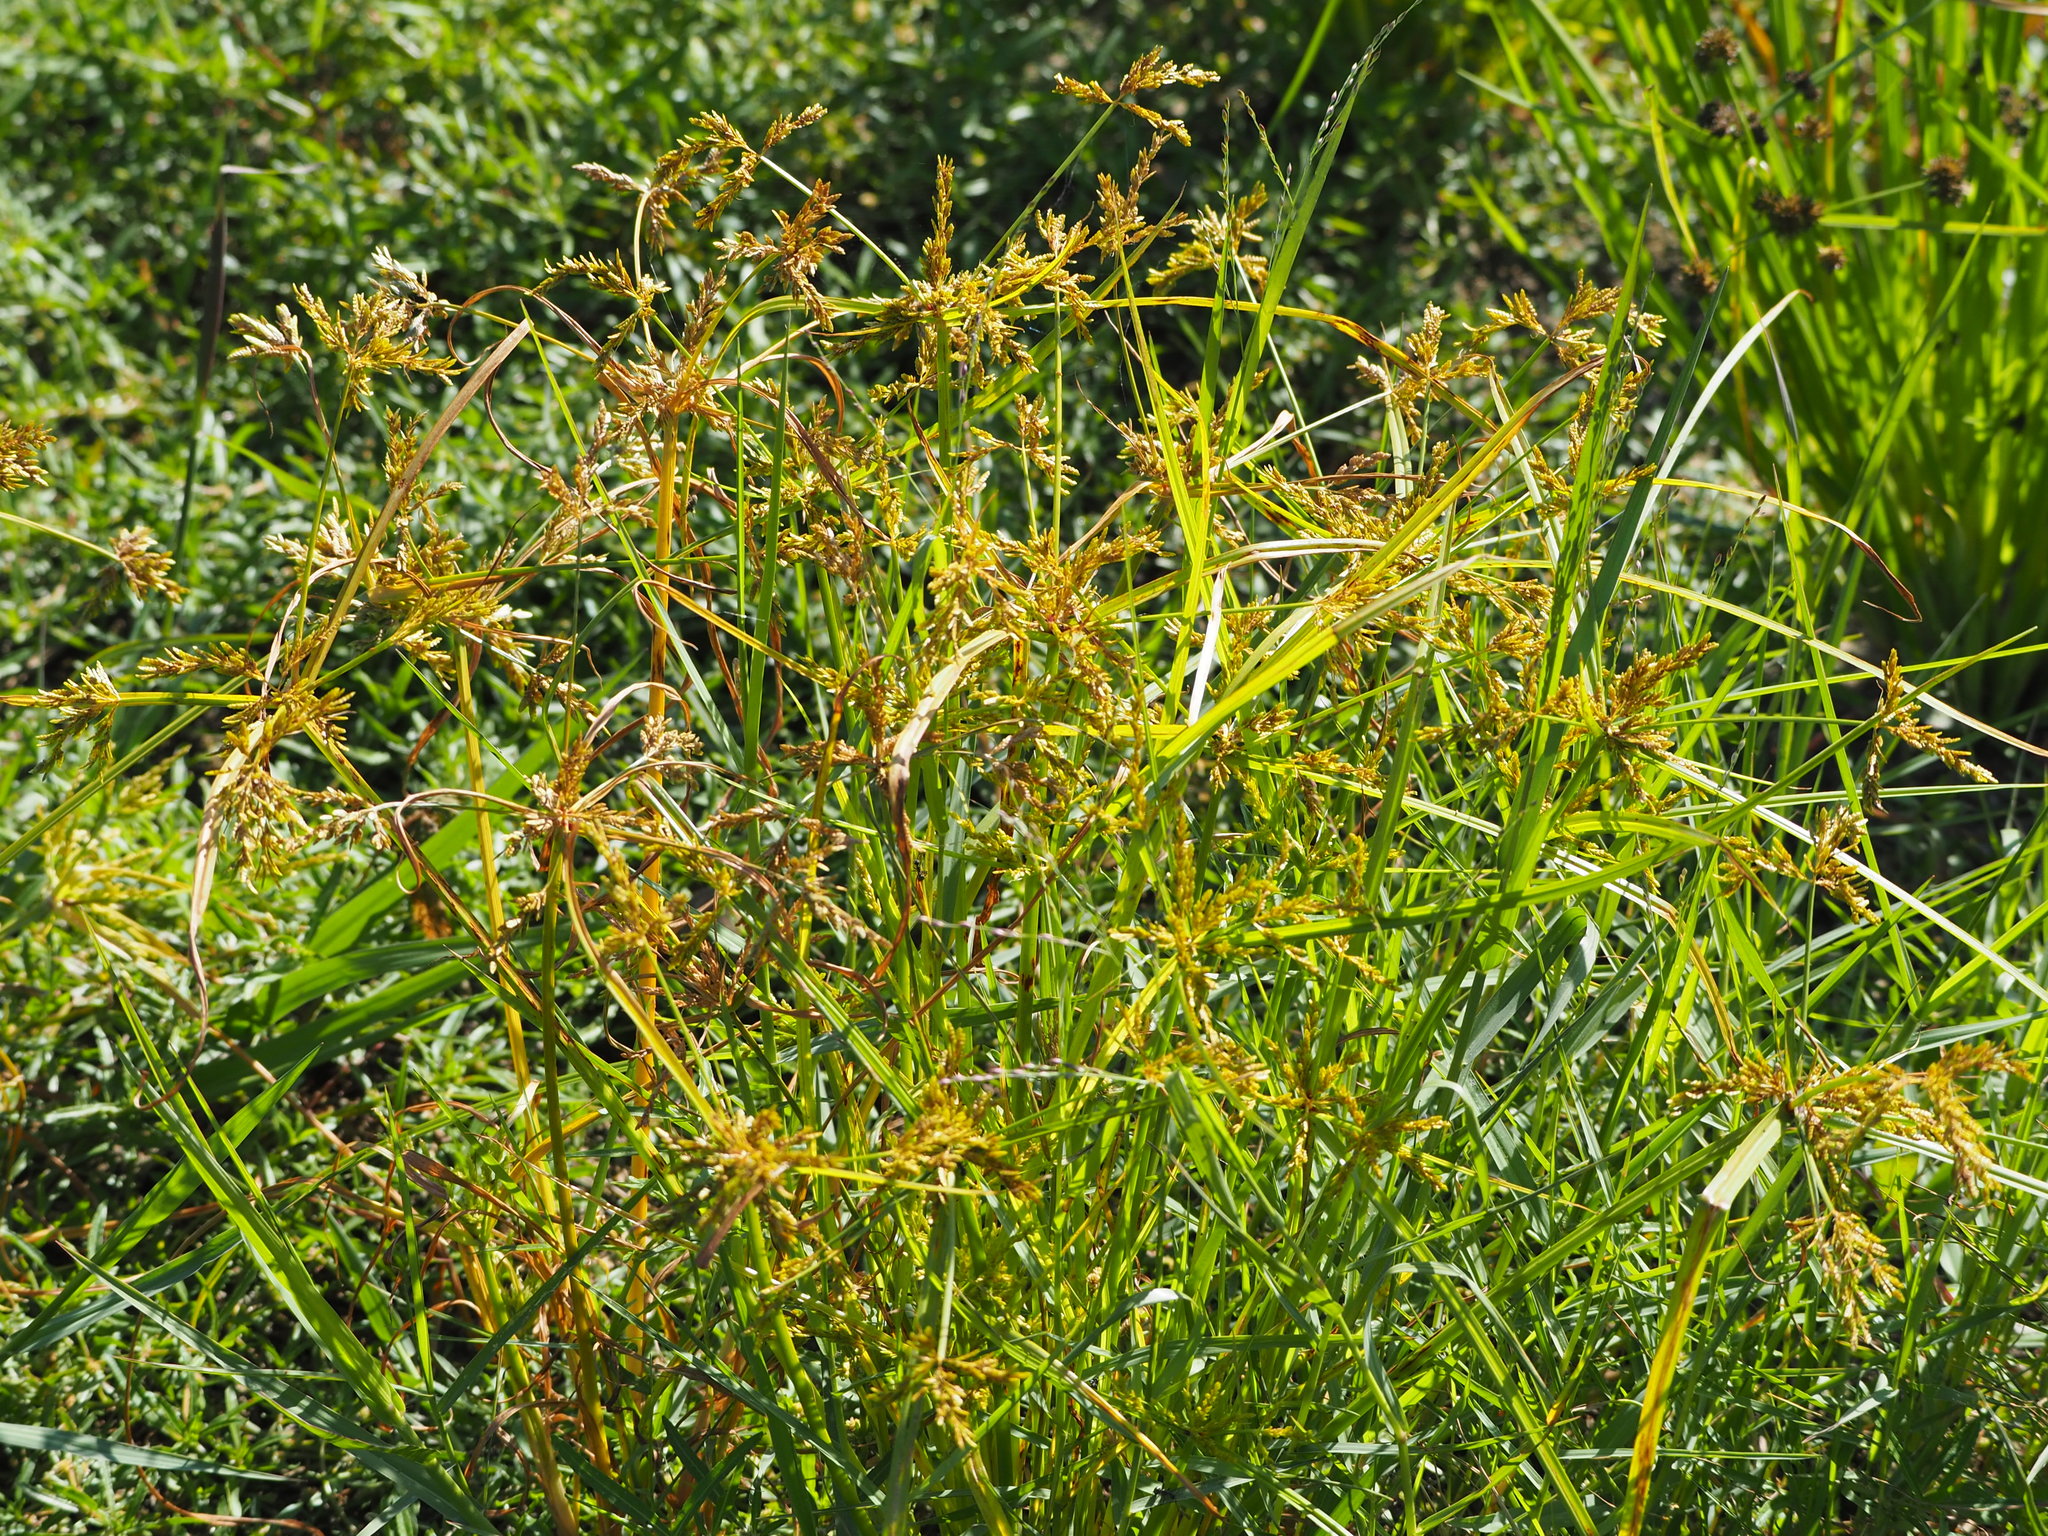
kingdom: Plantae
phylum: Tracheophyta
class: Liliopsida
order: Poales
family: Cyperaceae
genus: Cyperus
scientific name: Cyperus iria
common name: Ricefield flatsedge
